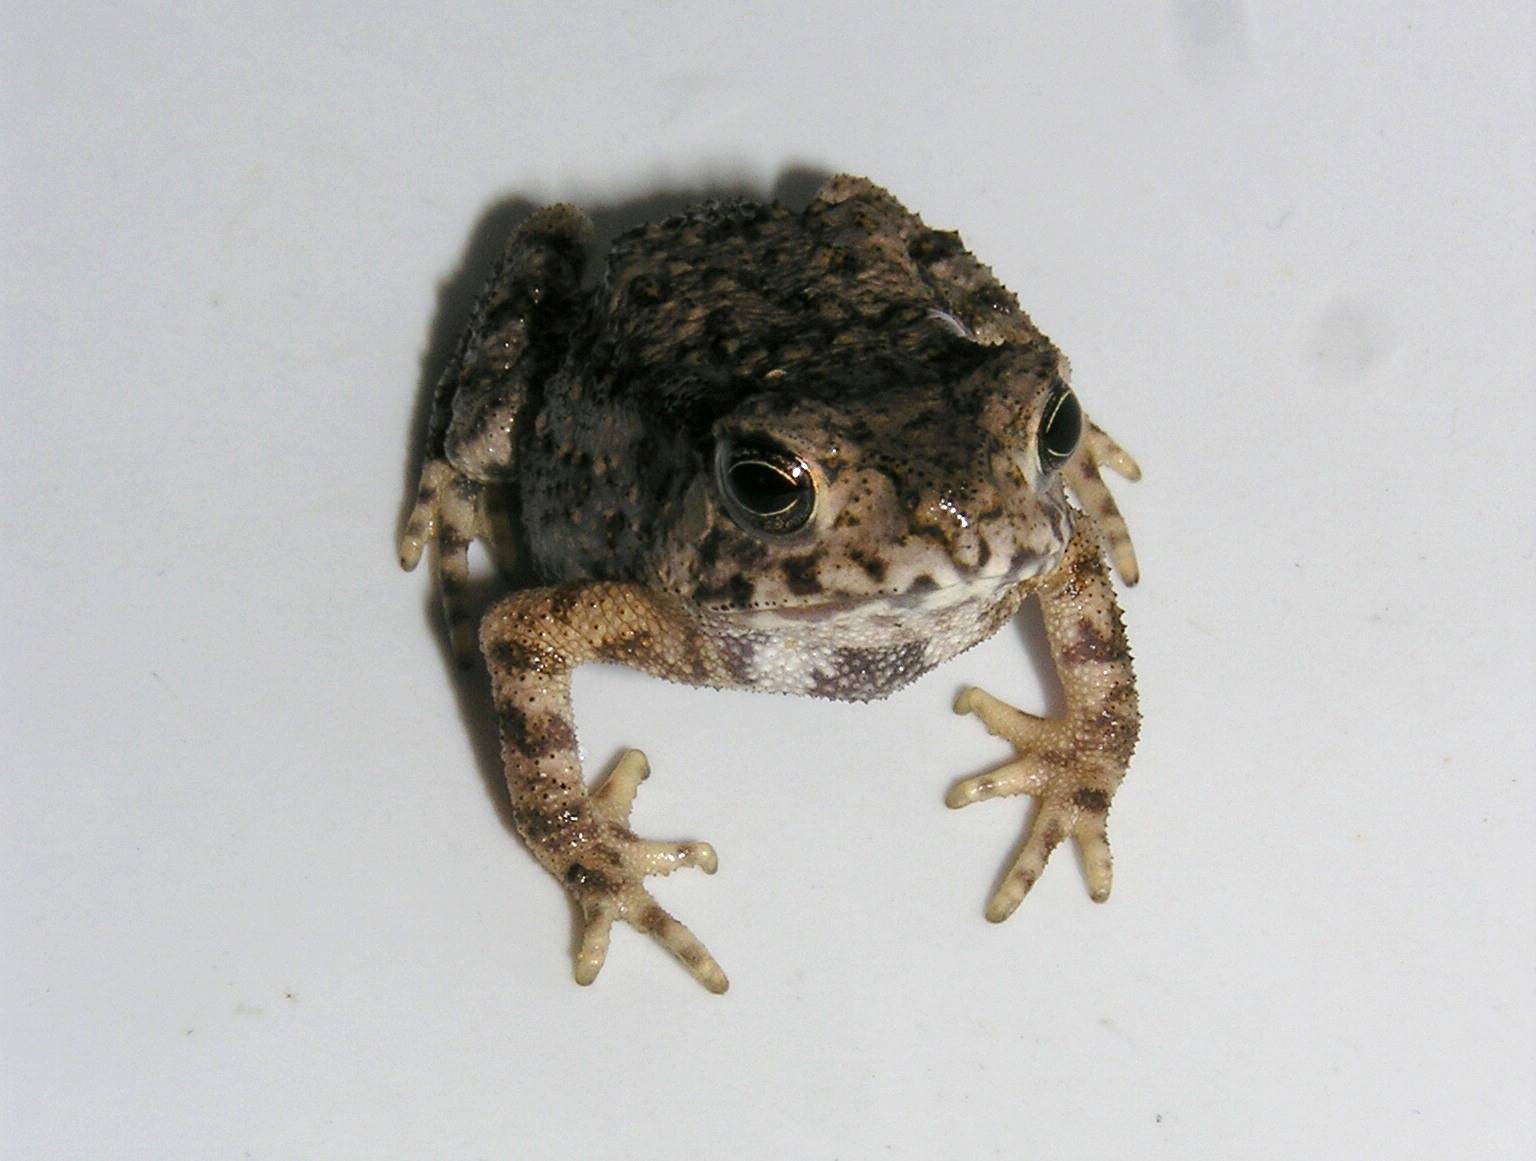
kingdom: Animalia
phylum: Chordata
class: Amphibia
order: Anura
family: Bufonidae
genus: Duttaphrynus
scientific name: Duttaphrynus melanostictus
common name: Common sunda toad
